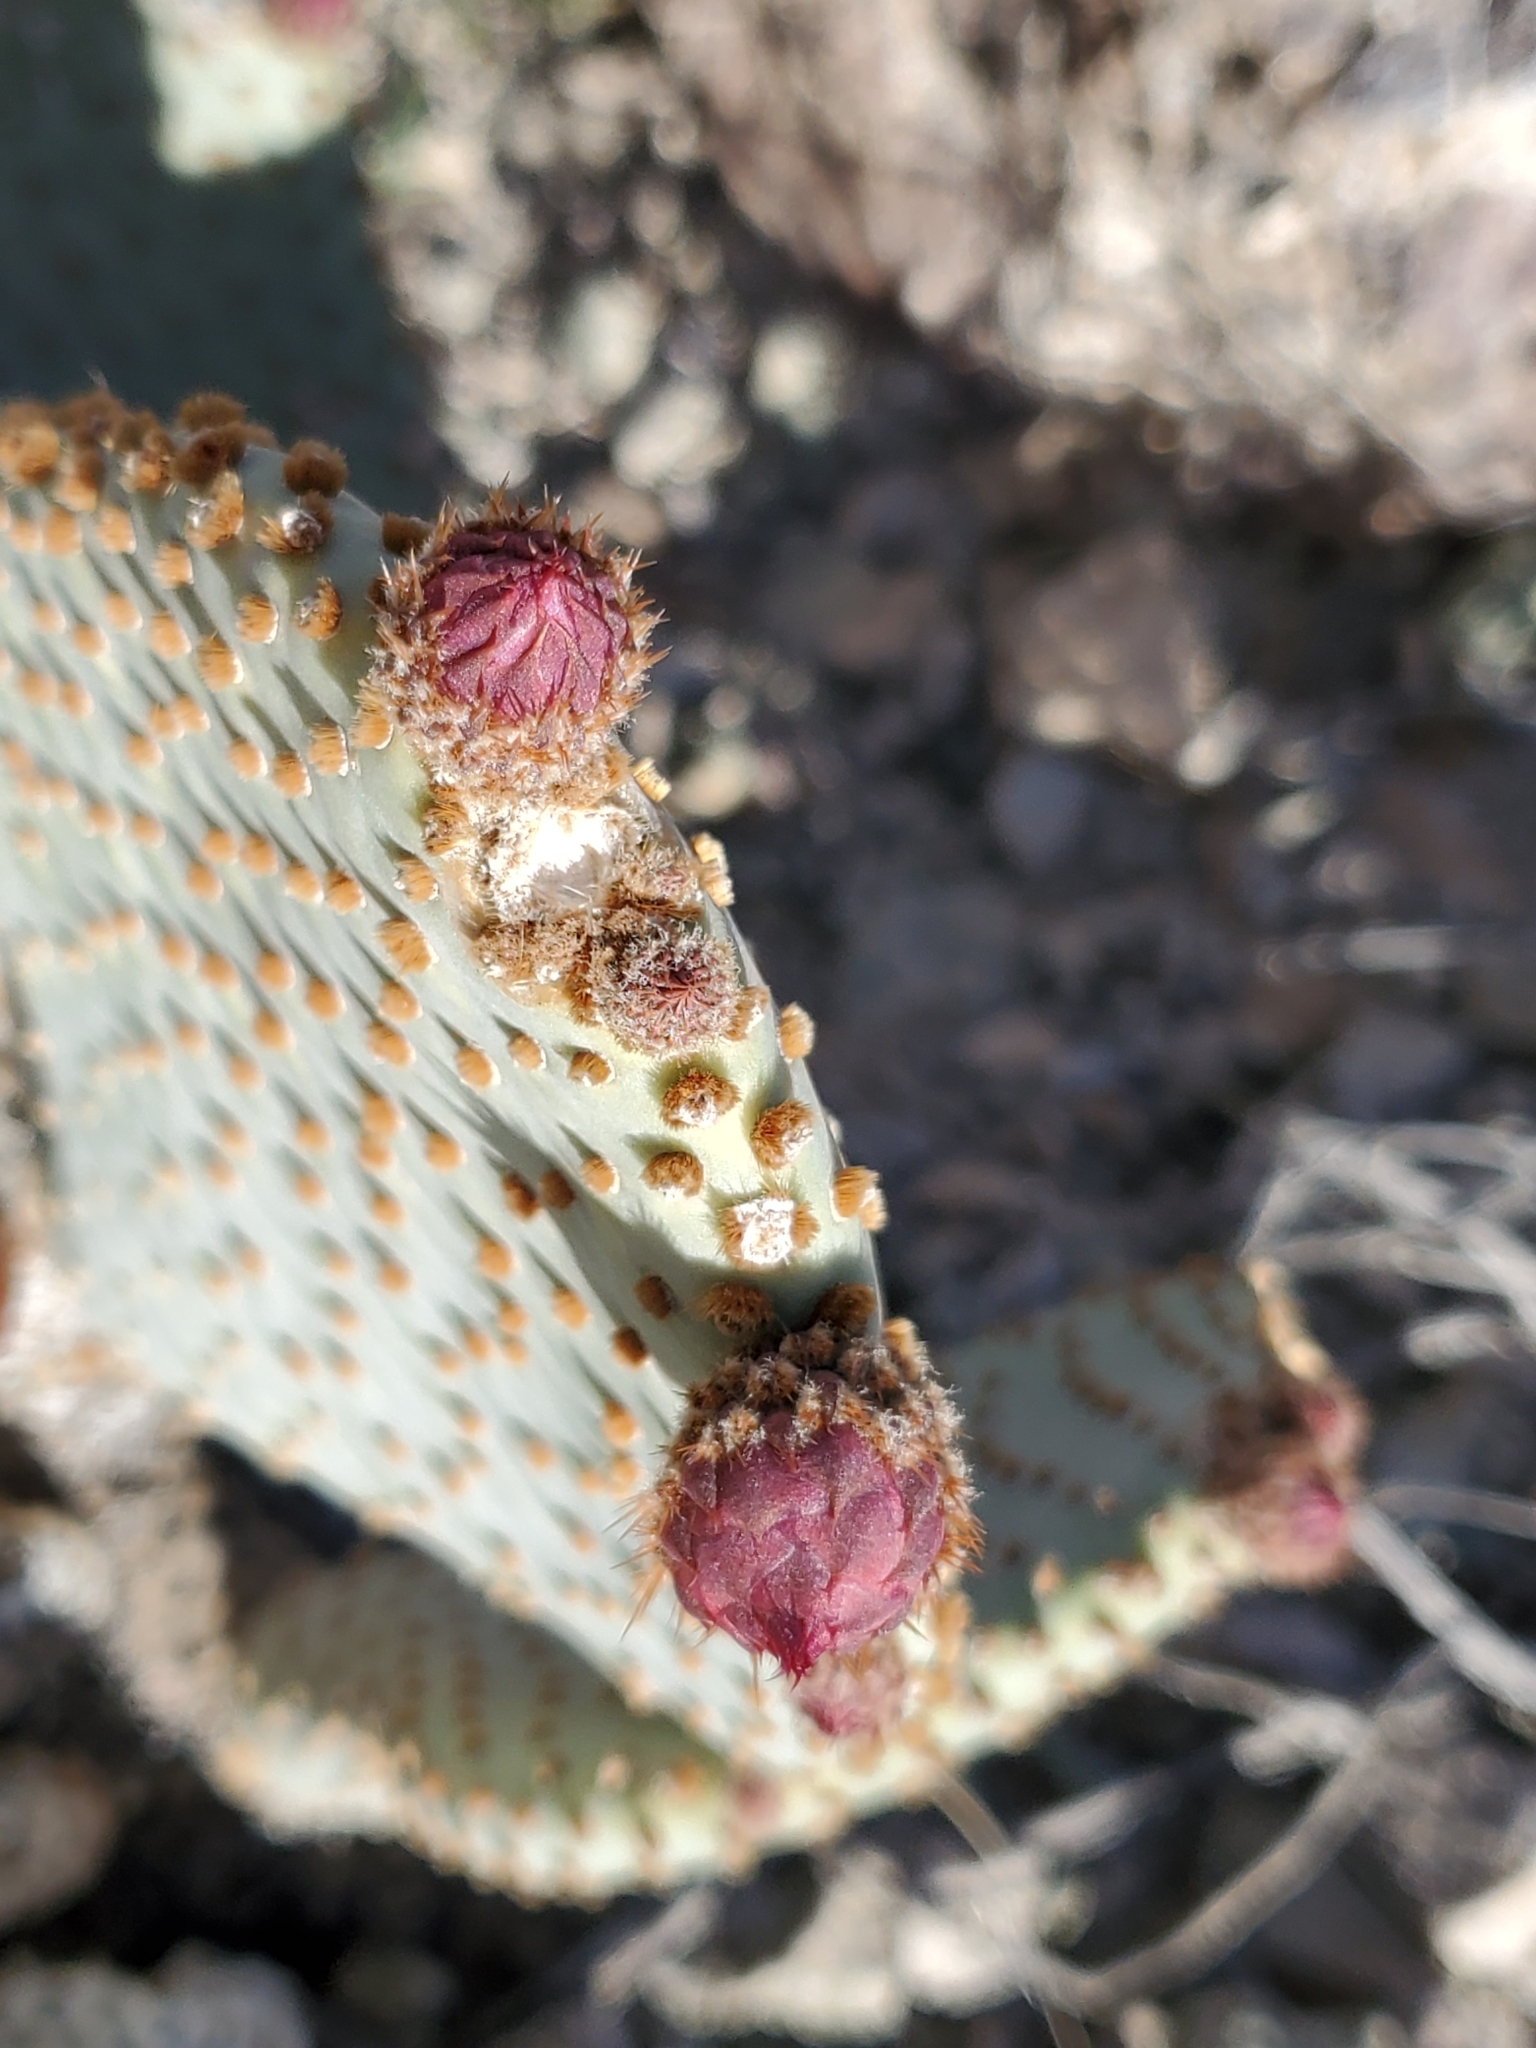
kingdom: Plantae
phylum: Tracheophyta
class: Magnoliopsida
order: Caryophyllales
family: Cactaceae
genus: Opuntia
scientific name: Opuntia basilaris
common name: Beavertail prickly-pear
